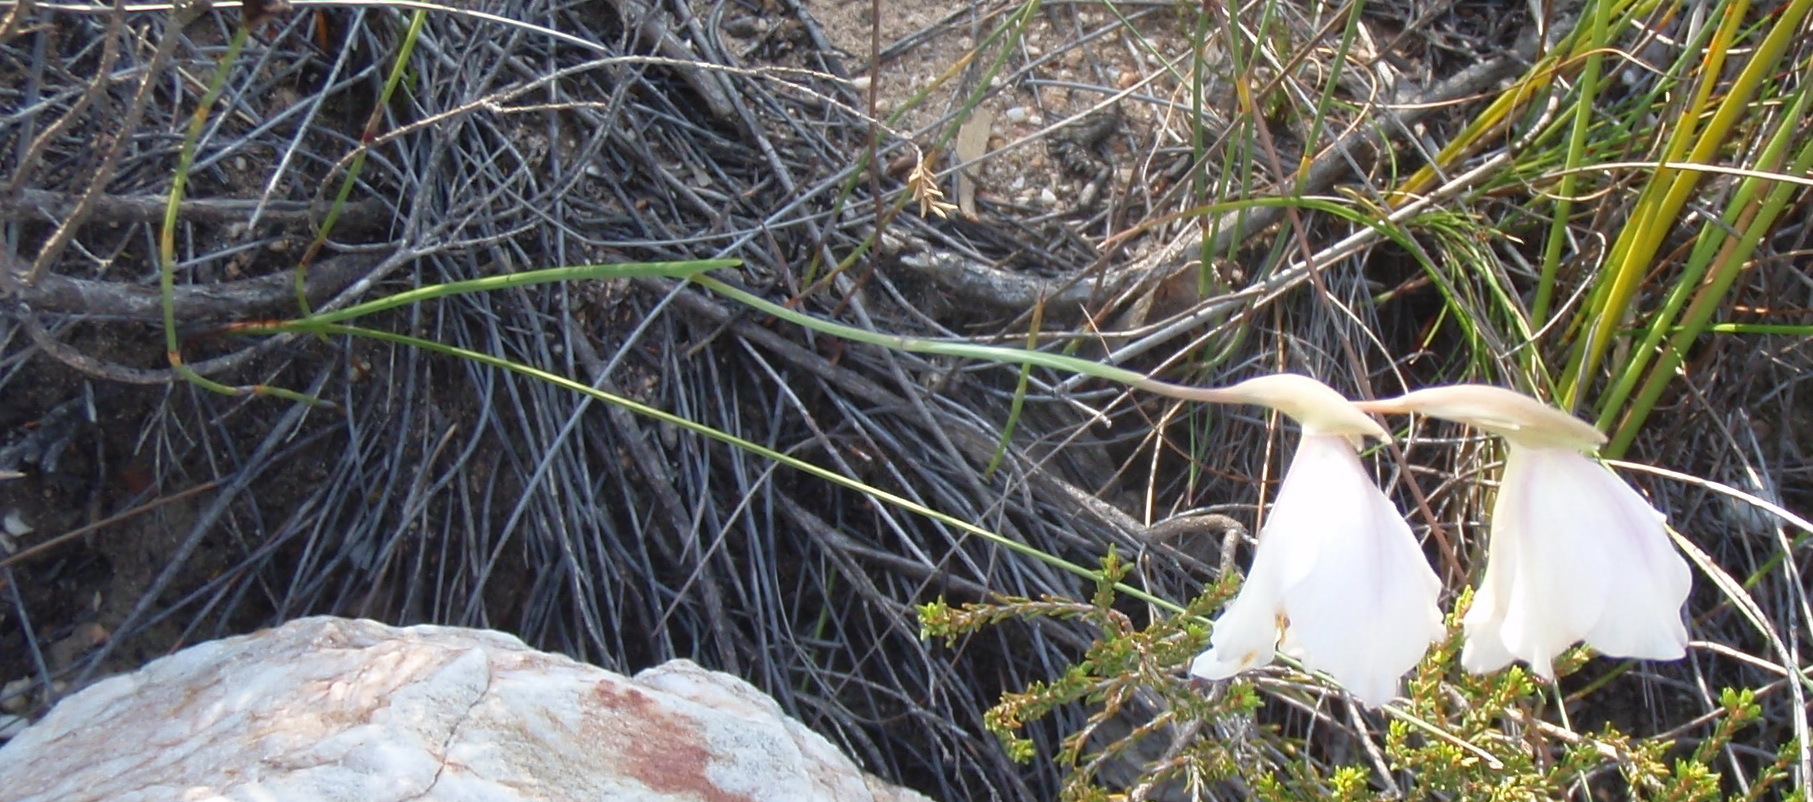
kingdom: Plantae
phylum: Tracheophyta
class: Liliopsida
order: Asparagales
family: Iridaceae
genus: Gladiolus
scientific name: Gladiolus patersoniae
